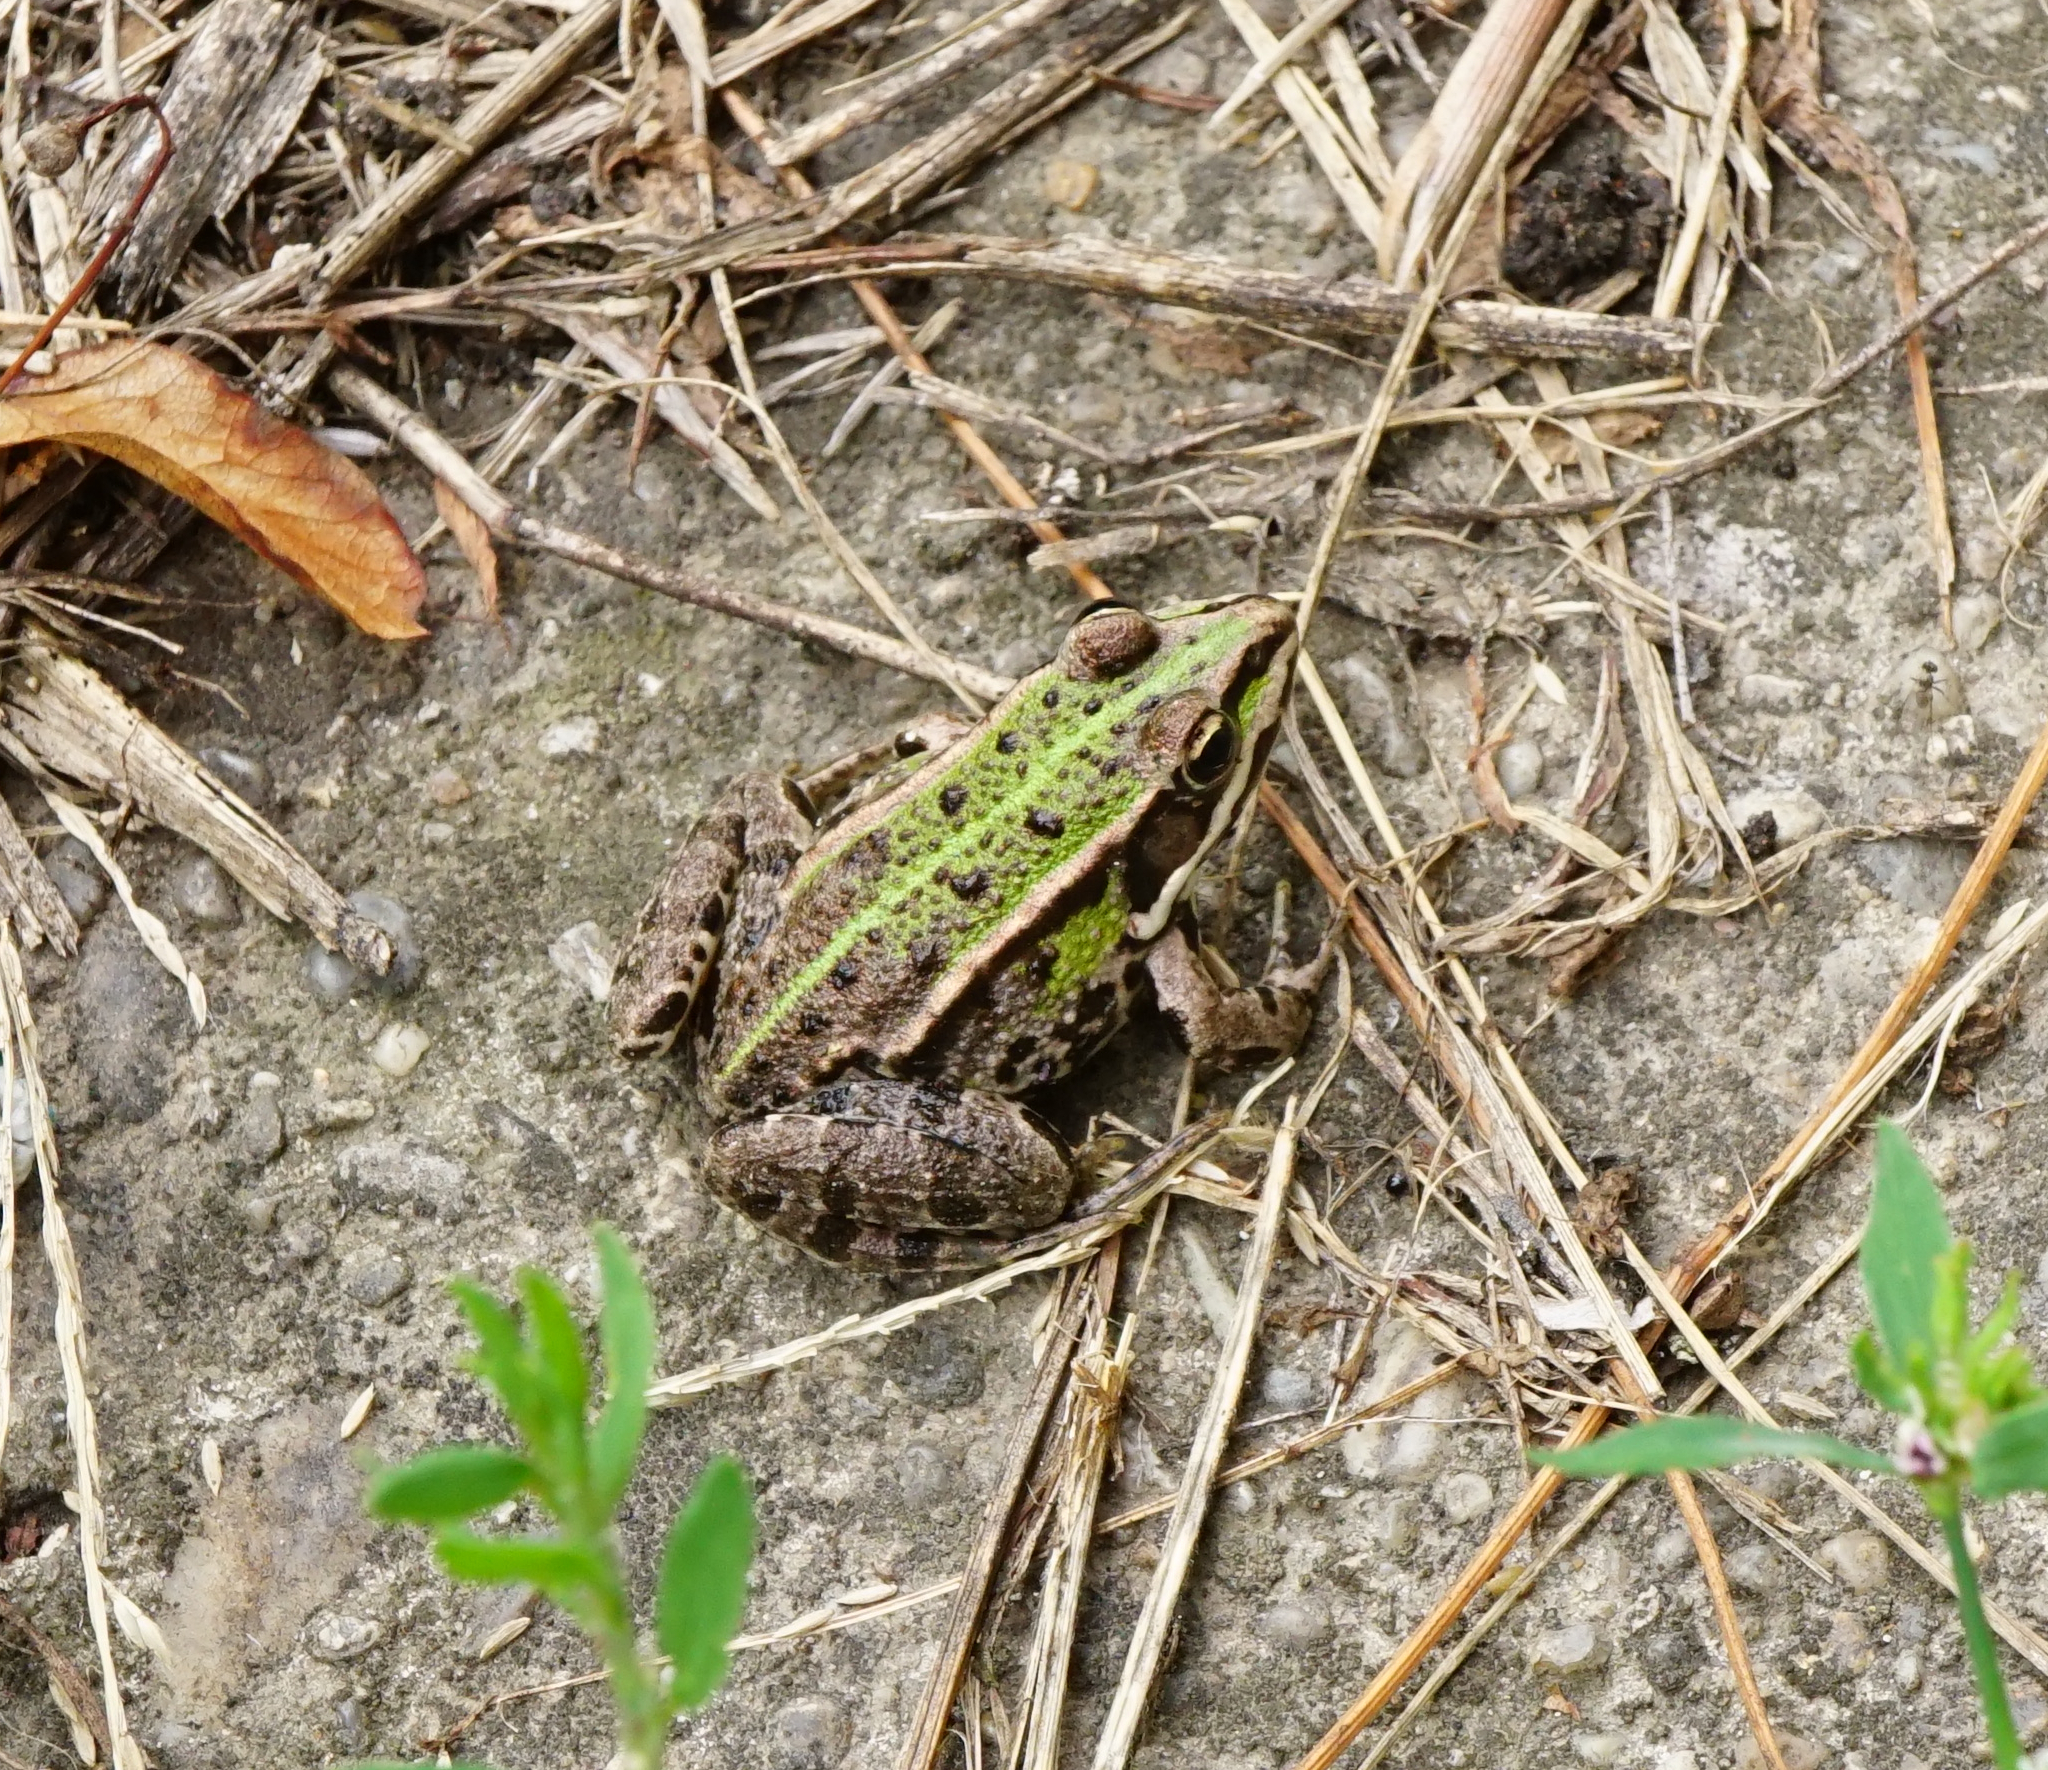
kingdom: Animalia
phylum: Chordata
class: Amphibia
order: Anura
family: Ranidae
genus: Pelophylax
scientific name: Pelophylax
